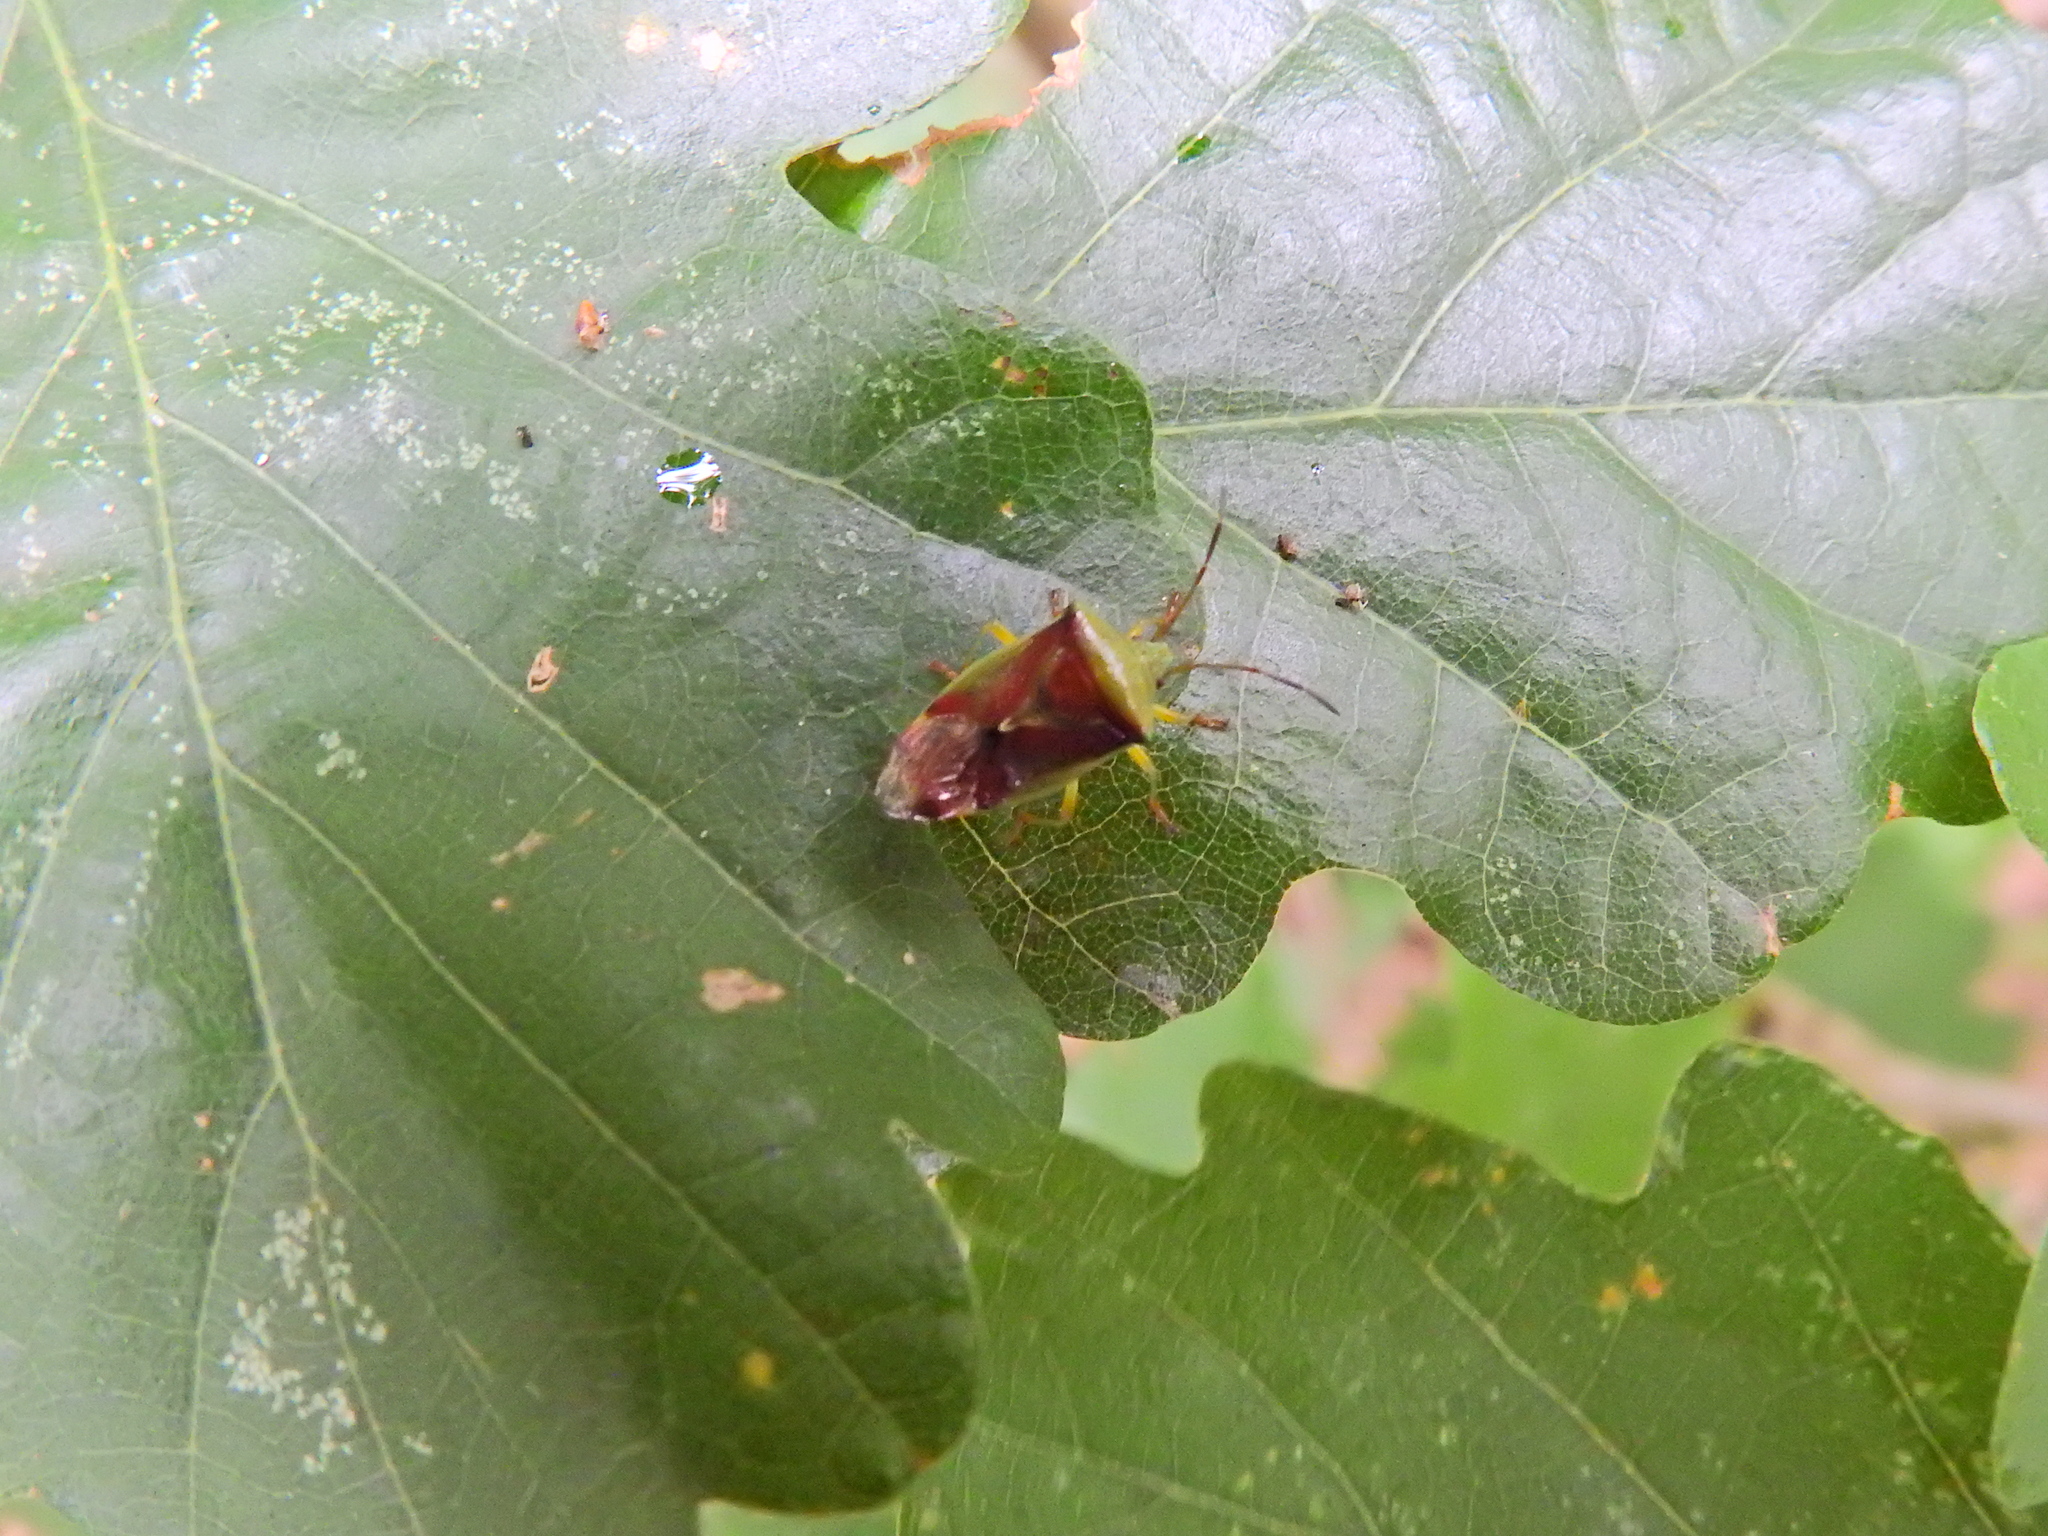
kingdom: Animalia
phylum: Arthropoda
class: Insecta
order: Hemiptera
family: Acanthosomatidae
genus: Elasmostethus
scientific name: Elasmostethus interstinctus
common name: Birch shieldbug
